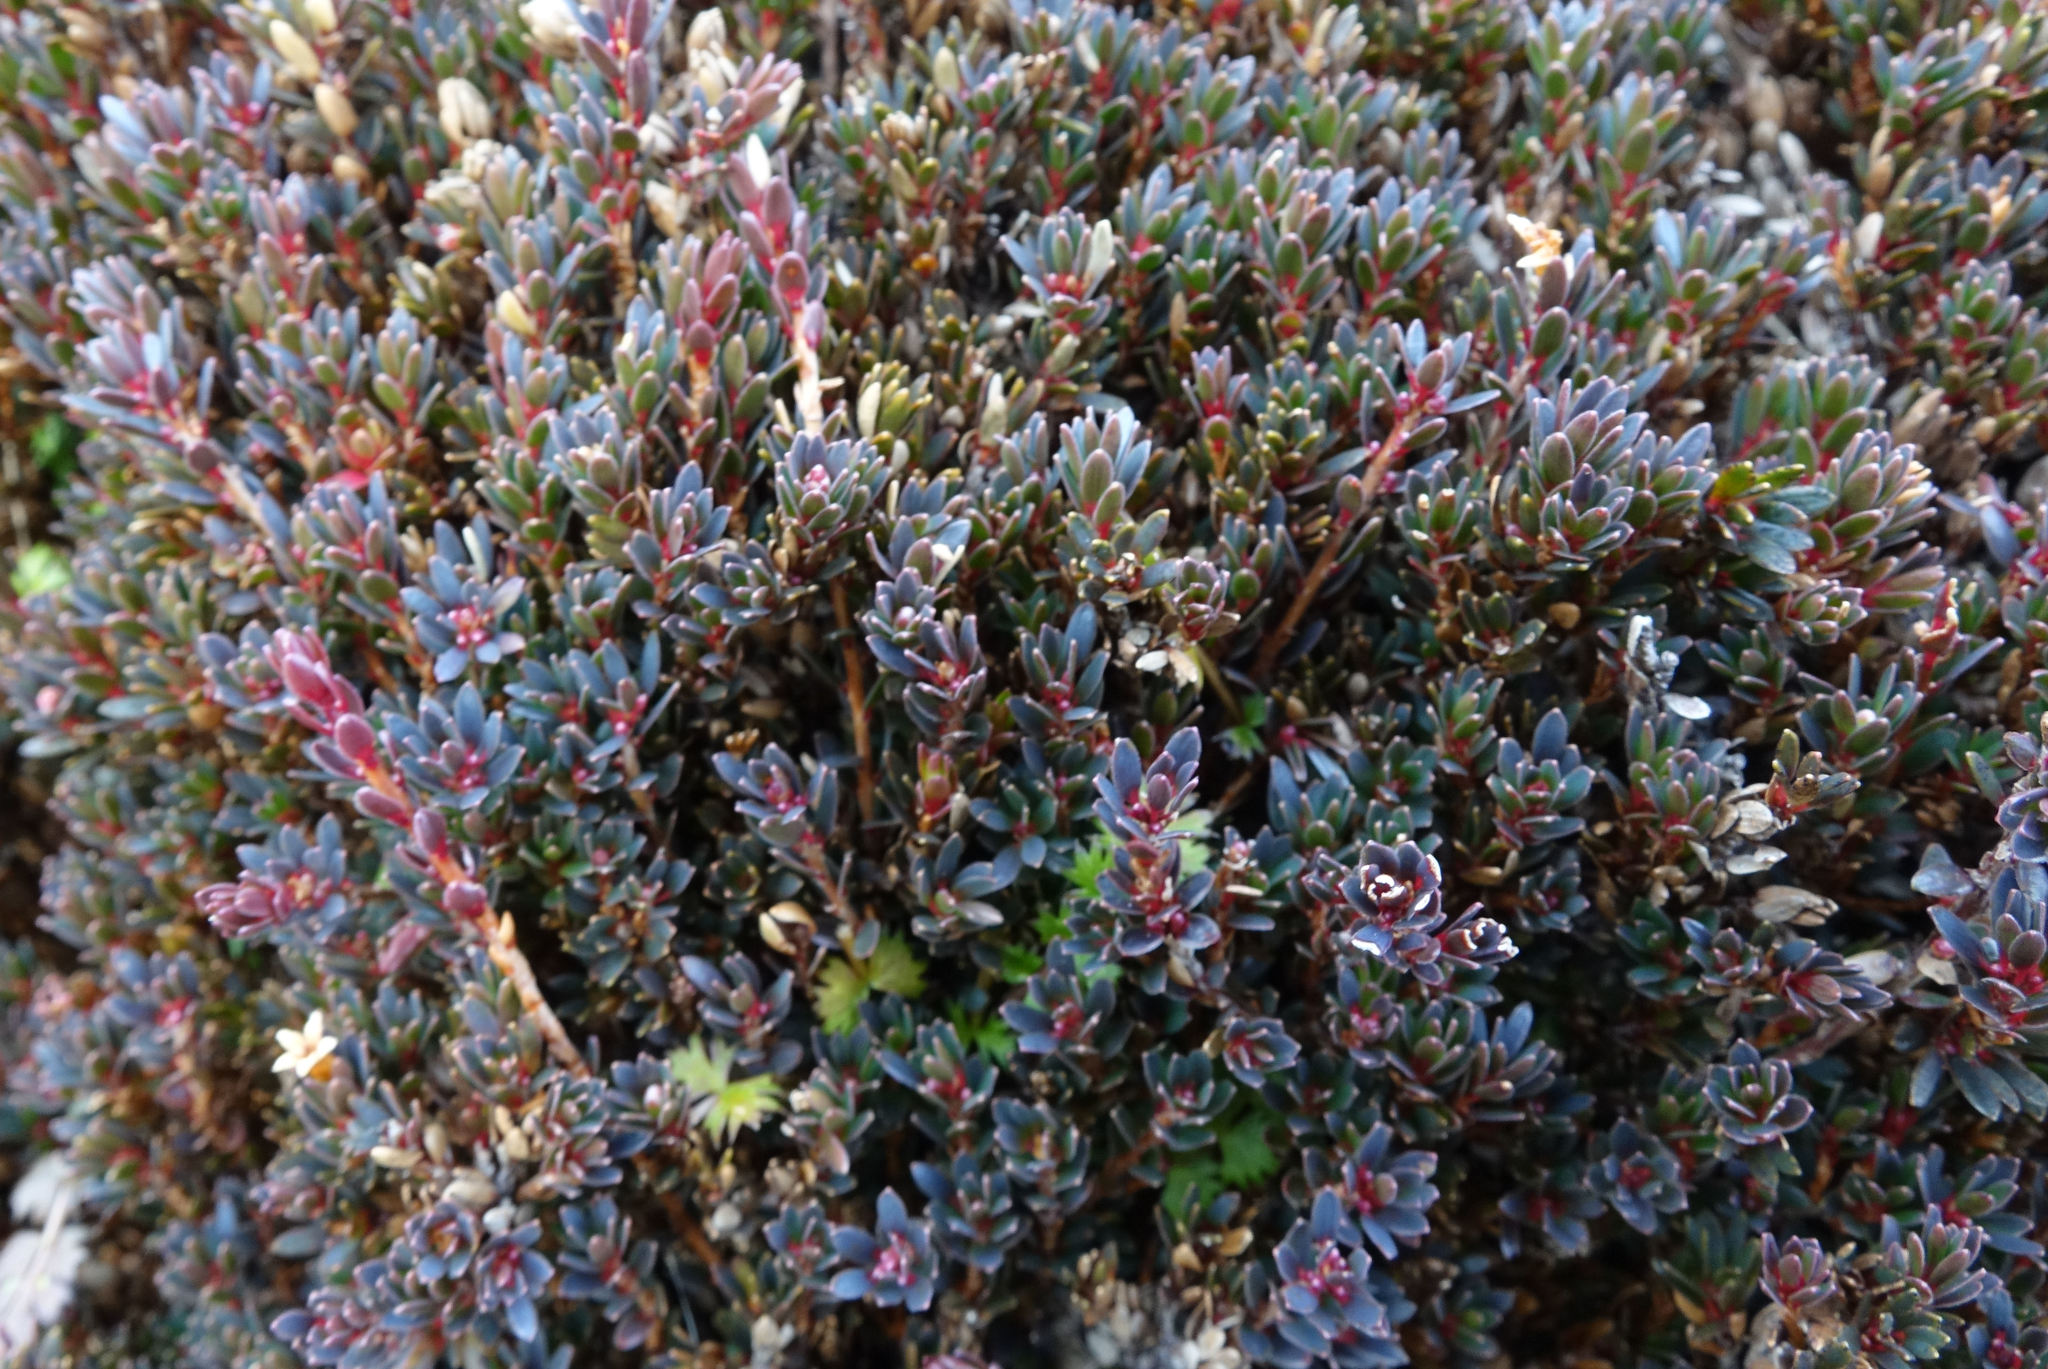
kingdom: Plantae
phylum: Tracheophyta
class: Magnoliopsida
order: Ericales
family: Ericaceae
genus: Pentachondra
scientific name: Pentachondra pumila
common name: Carpet-heath
